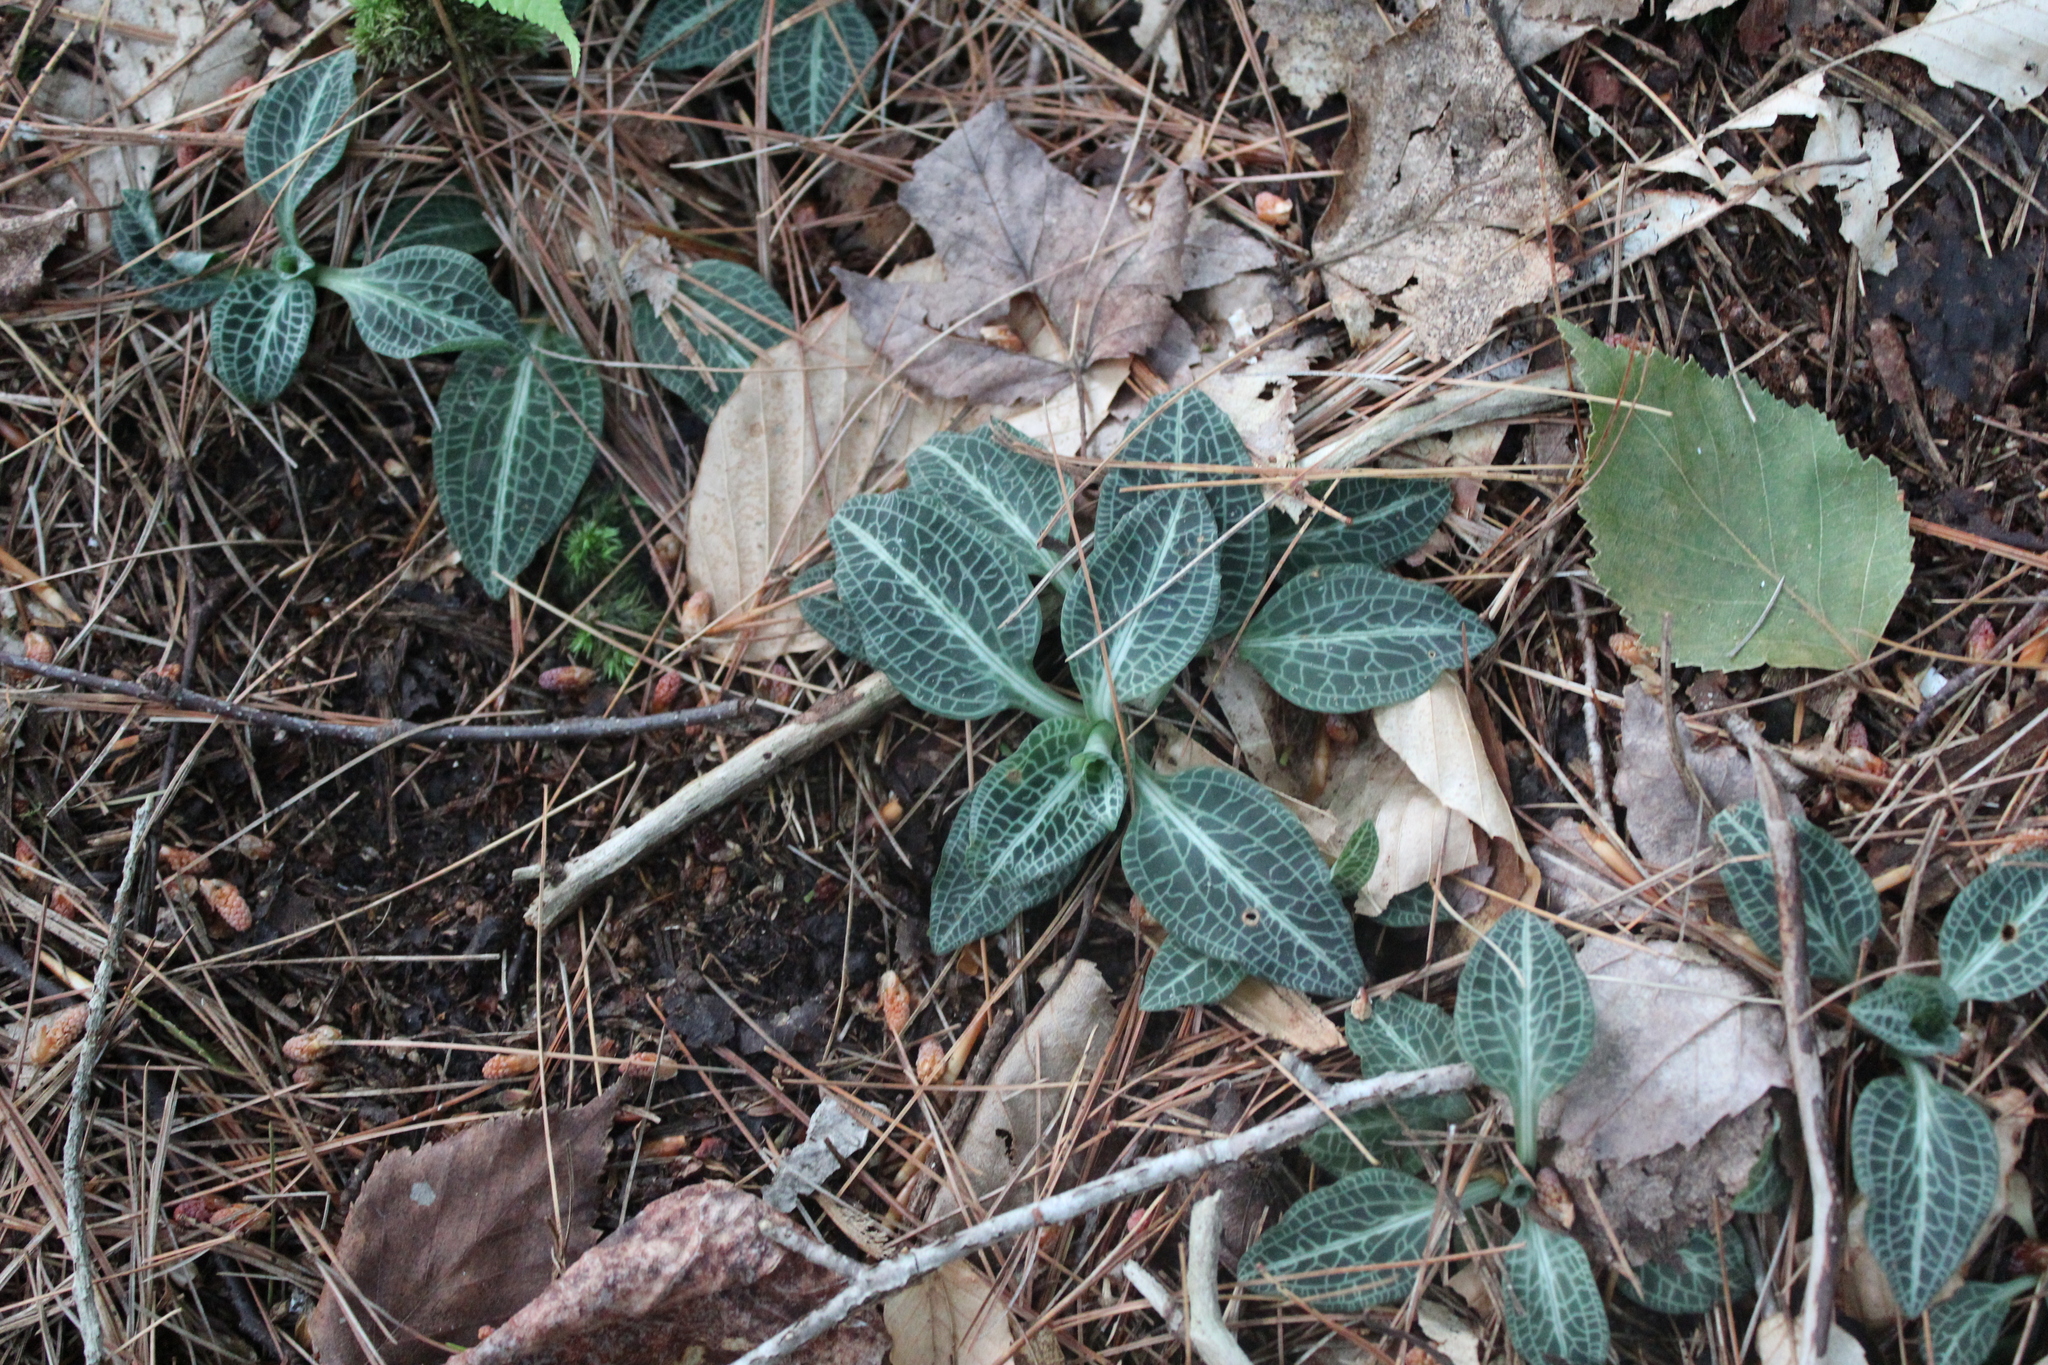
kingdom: Plantae
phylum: Tracheophyta
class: Liliopsida
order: Asparagales
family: Orchidaceae
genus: Goodyera
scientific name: Goodyera pubescens
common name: Downy rattlesnake-plantain
